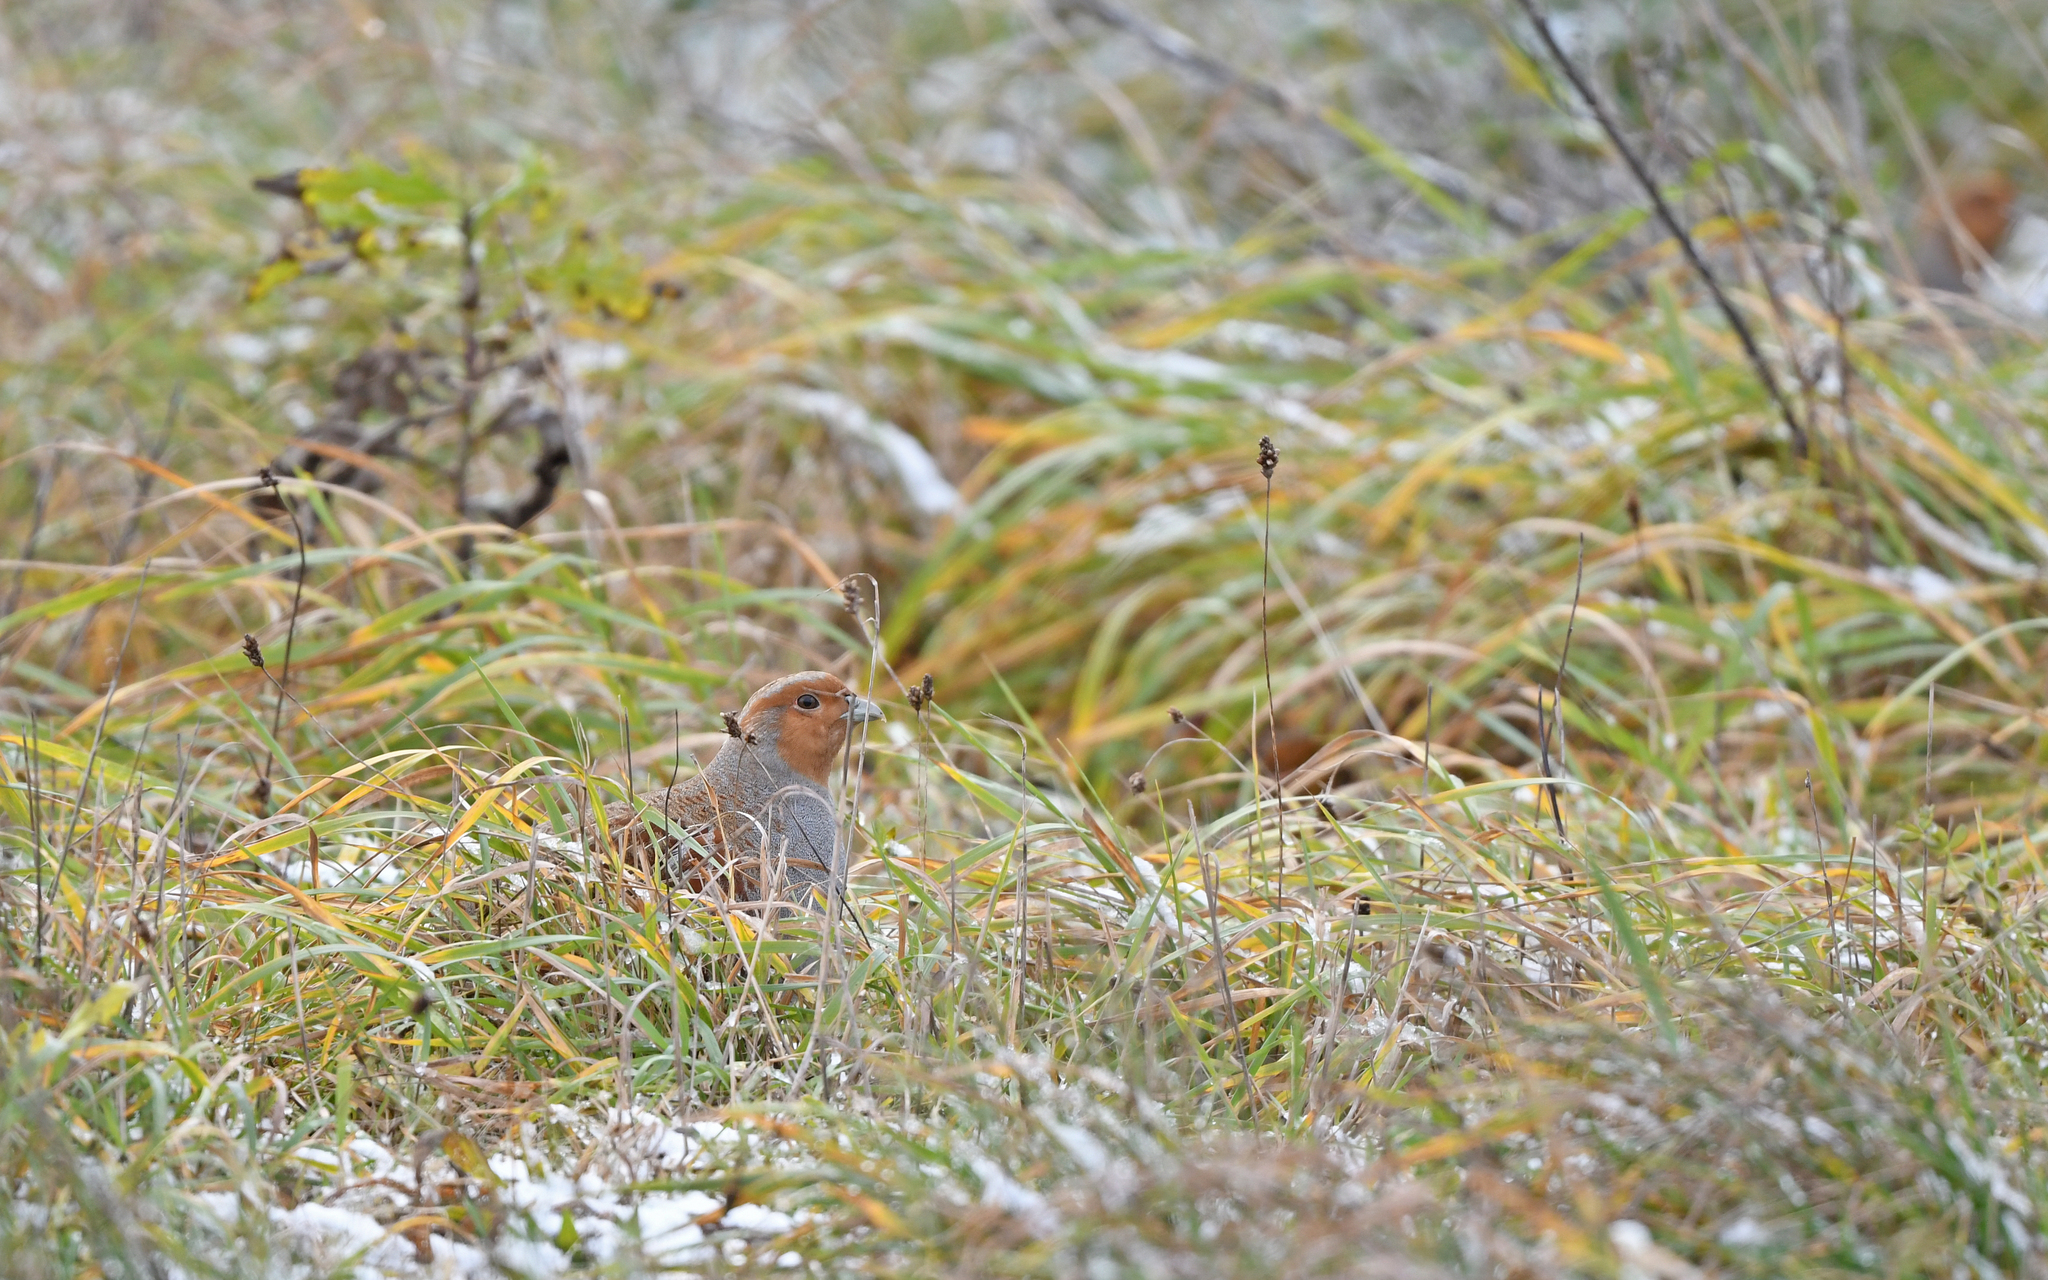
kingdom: Animalia
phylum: Chordata
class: Aves
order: Galliformes
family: Phasianidae
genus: Perdix
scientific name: Perdix perdix
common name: Grey partridge
